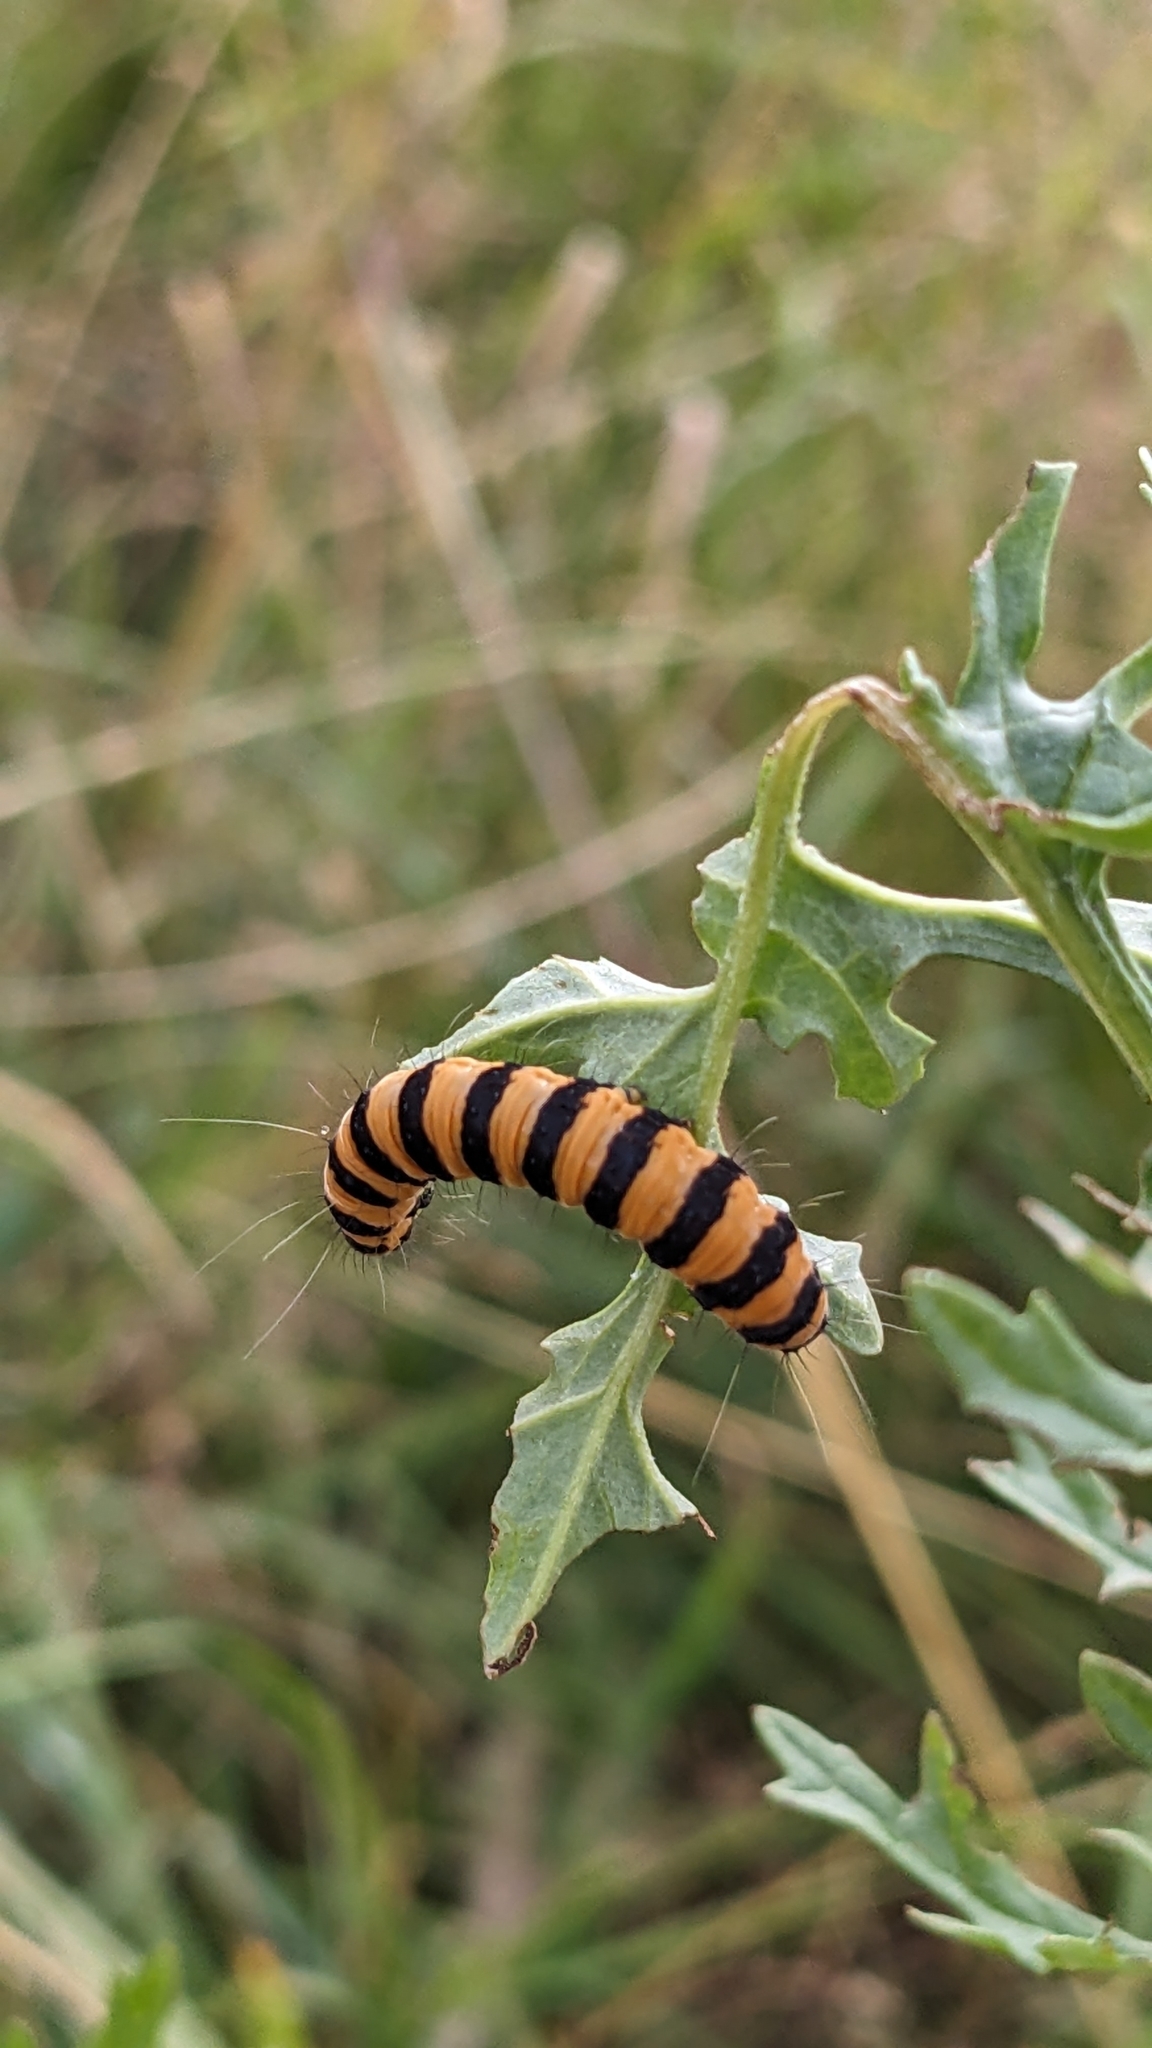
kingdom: Animalia
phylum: Arthropoda
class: Insecta
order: Lepidoptera
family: Erebidae
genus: Tyria
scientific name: Tyria jacobaeae
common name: Cinnabar
